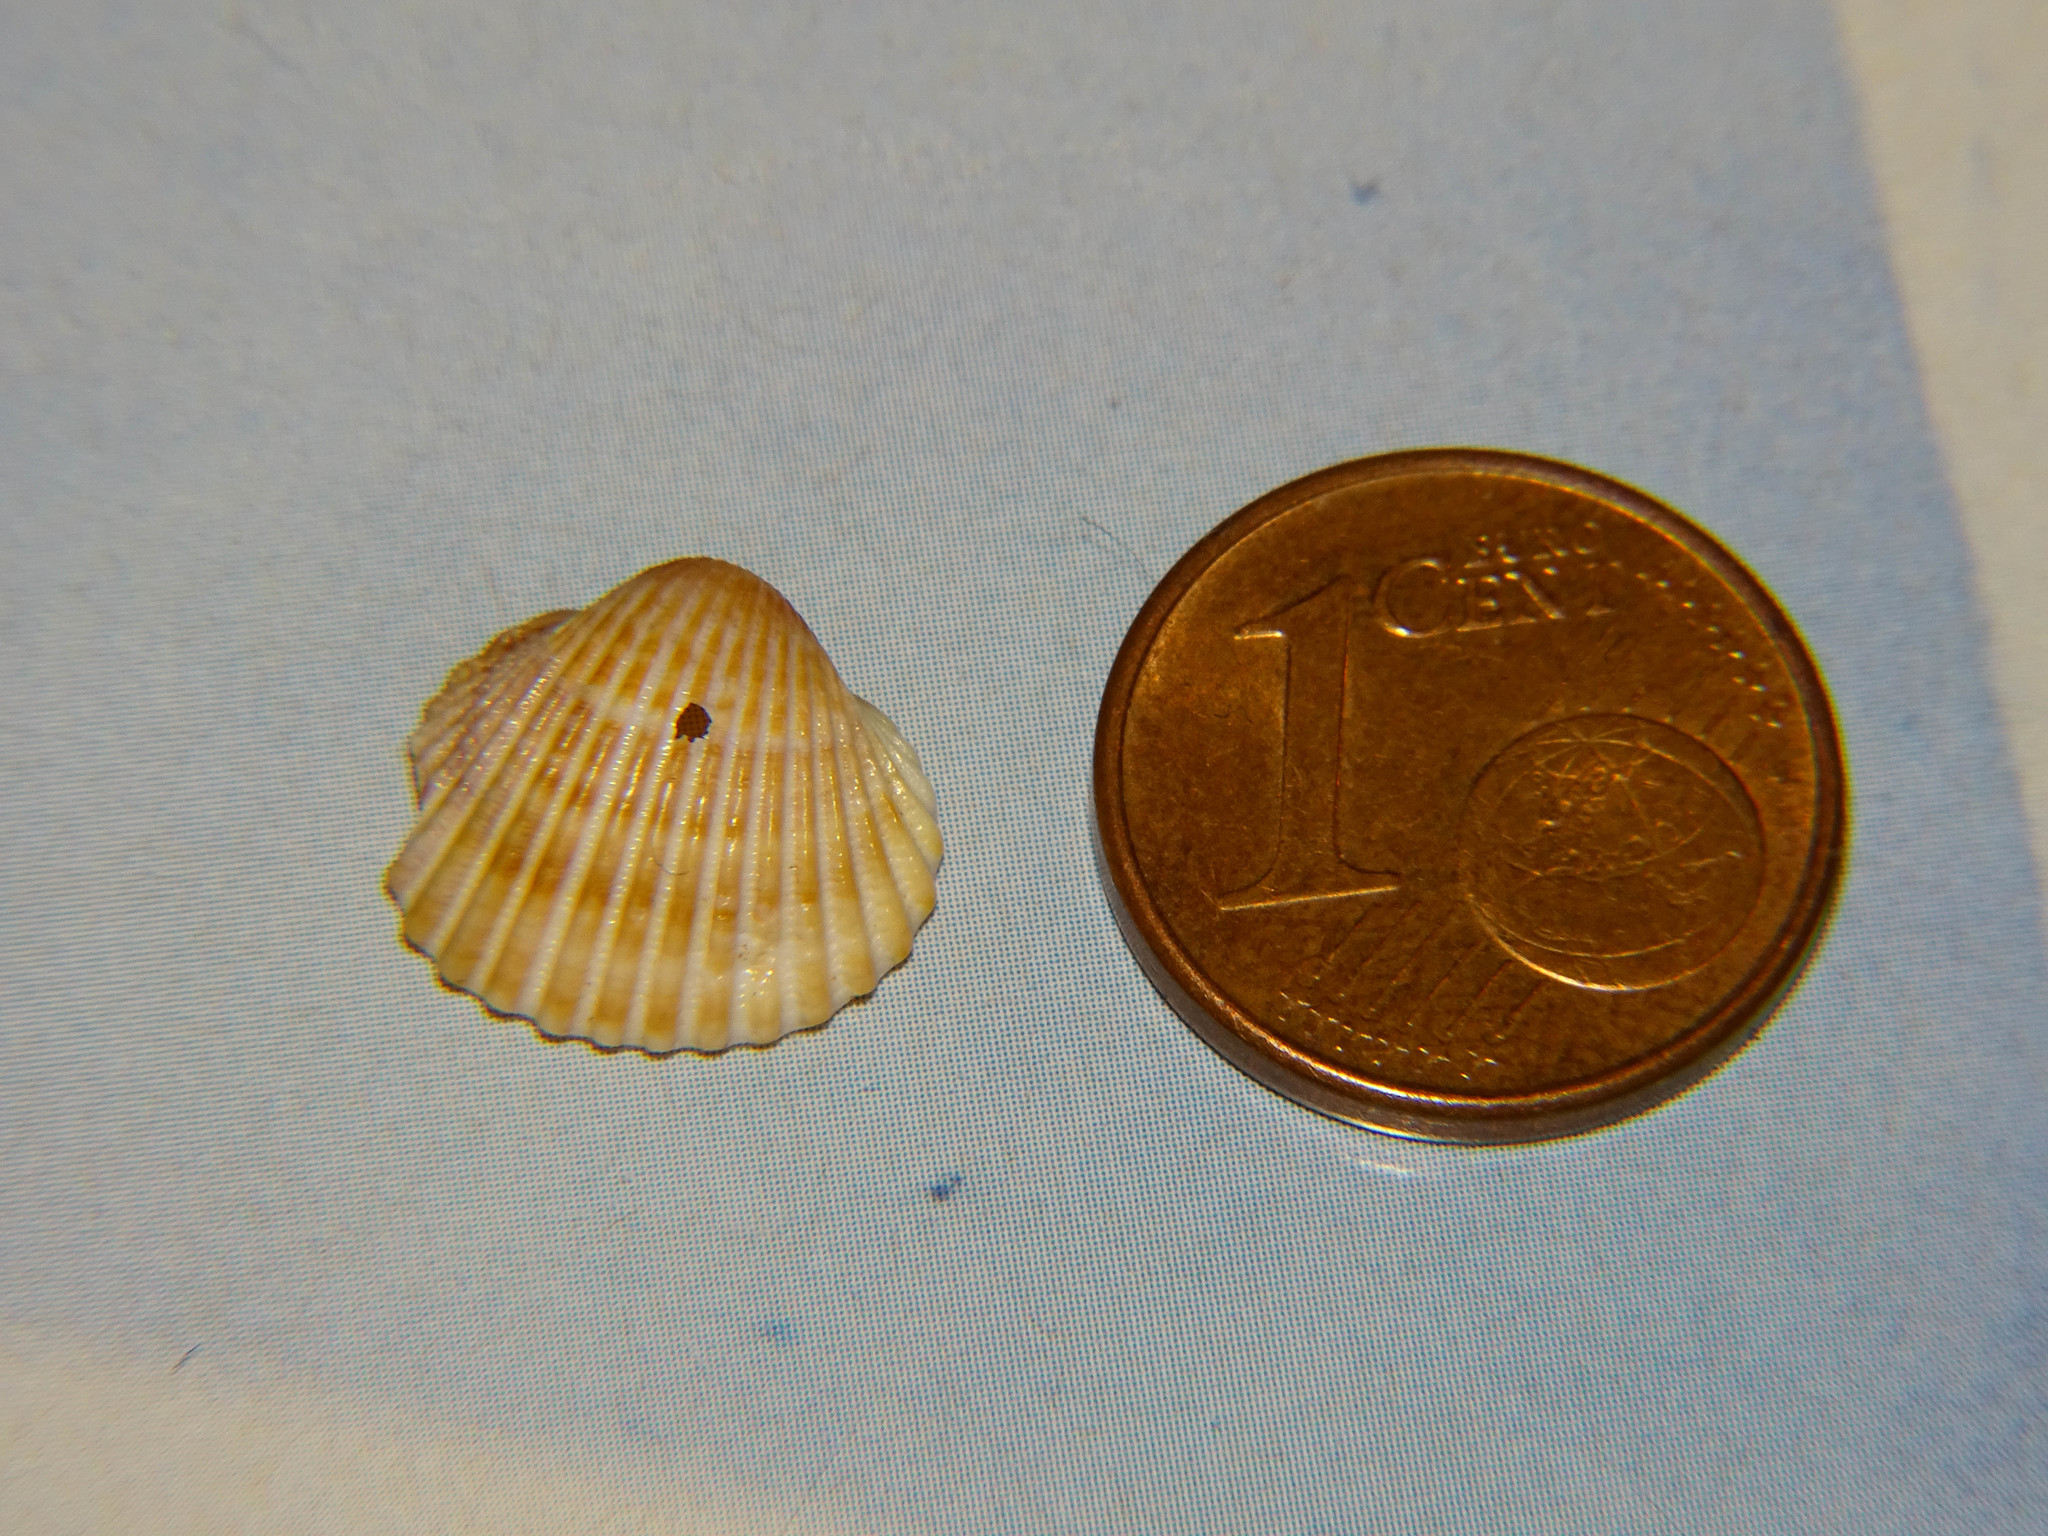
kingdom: Animalia
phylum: Mollusca
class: Bivalvia
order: Cardiida
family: Cardiidae
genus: Acanthocardia
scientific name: Acanthocardia tuberculata
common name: Rough cockle
